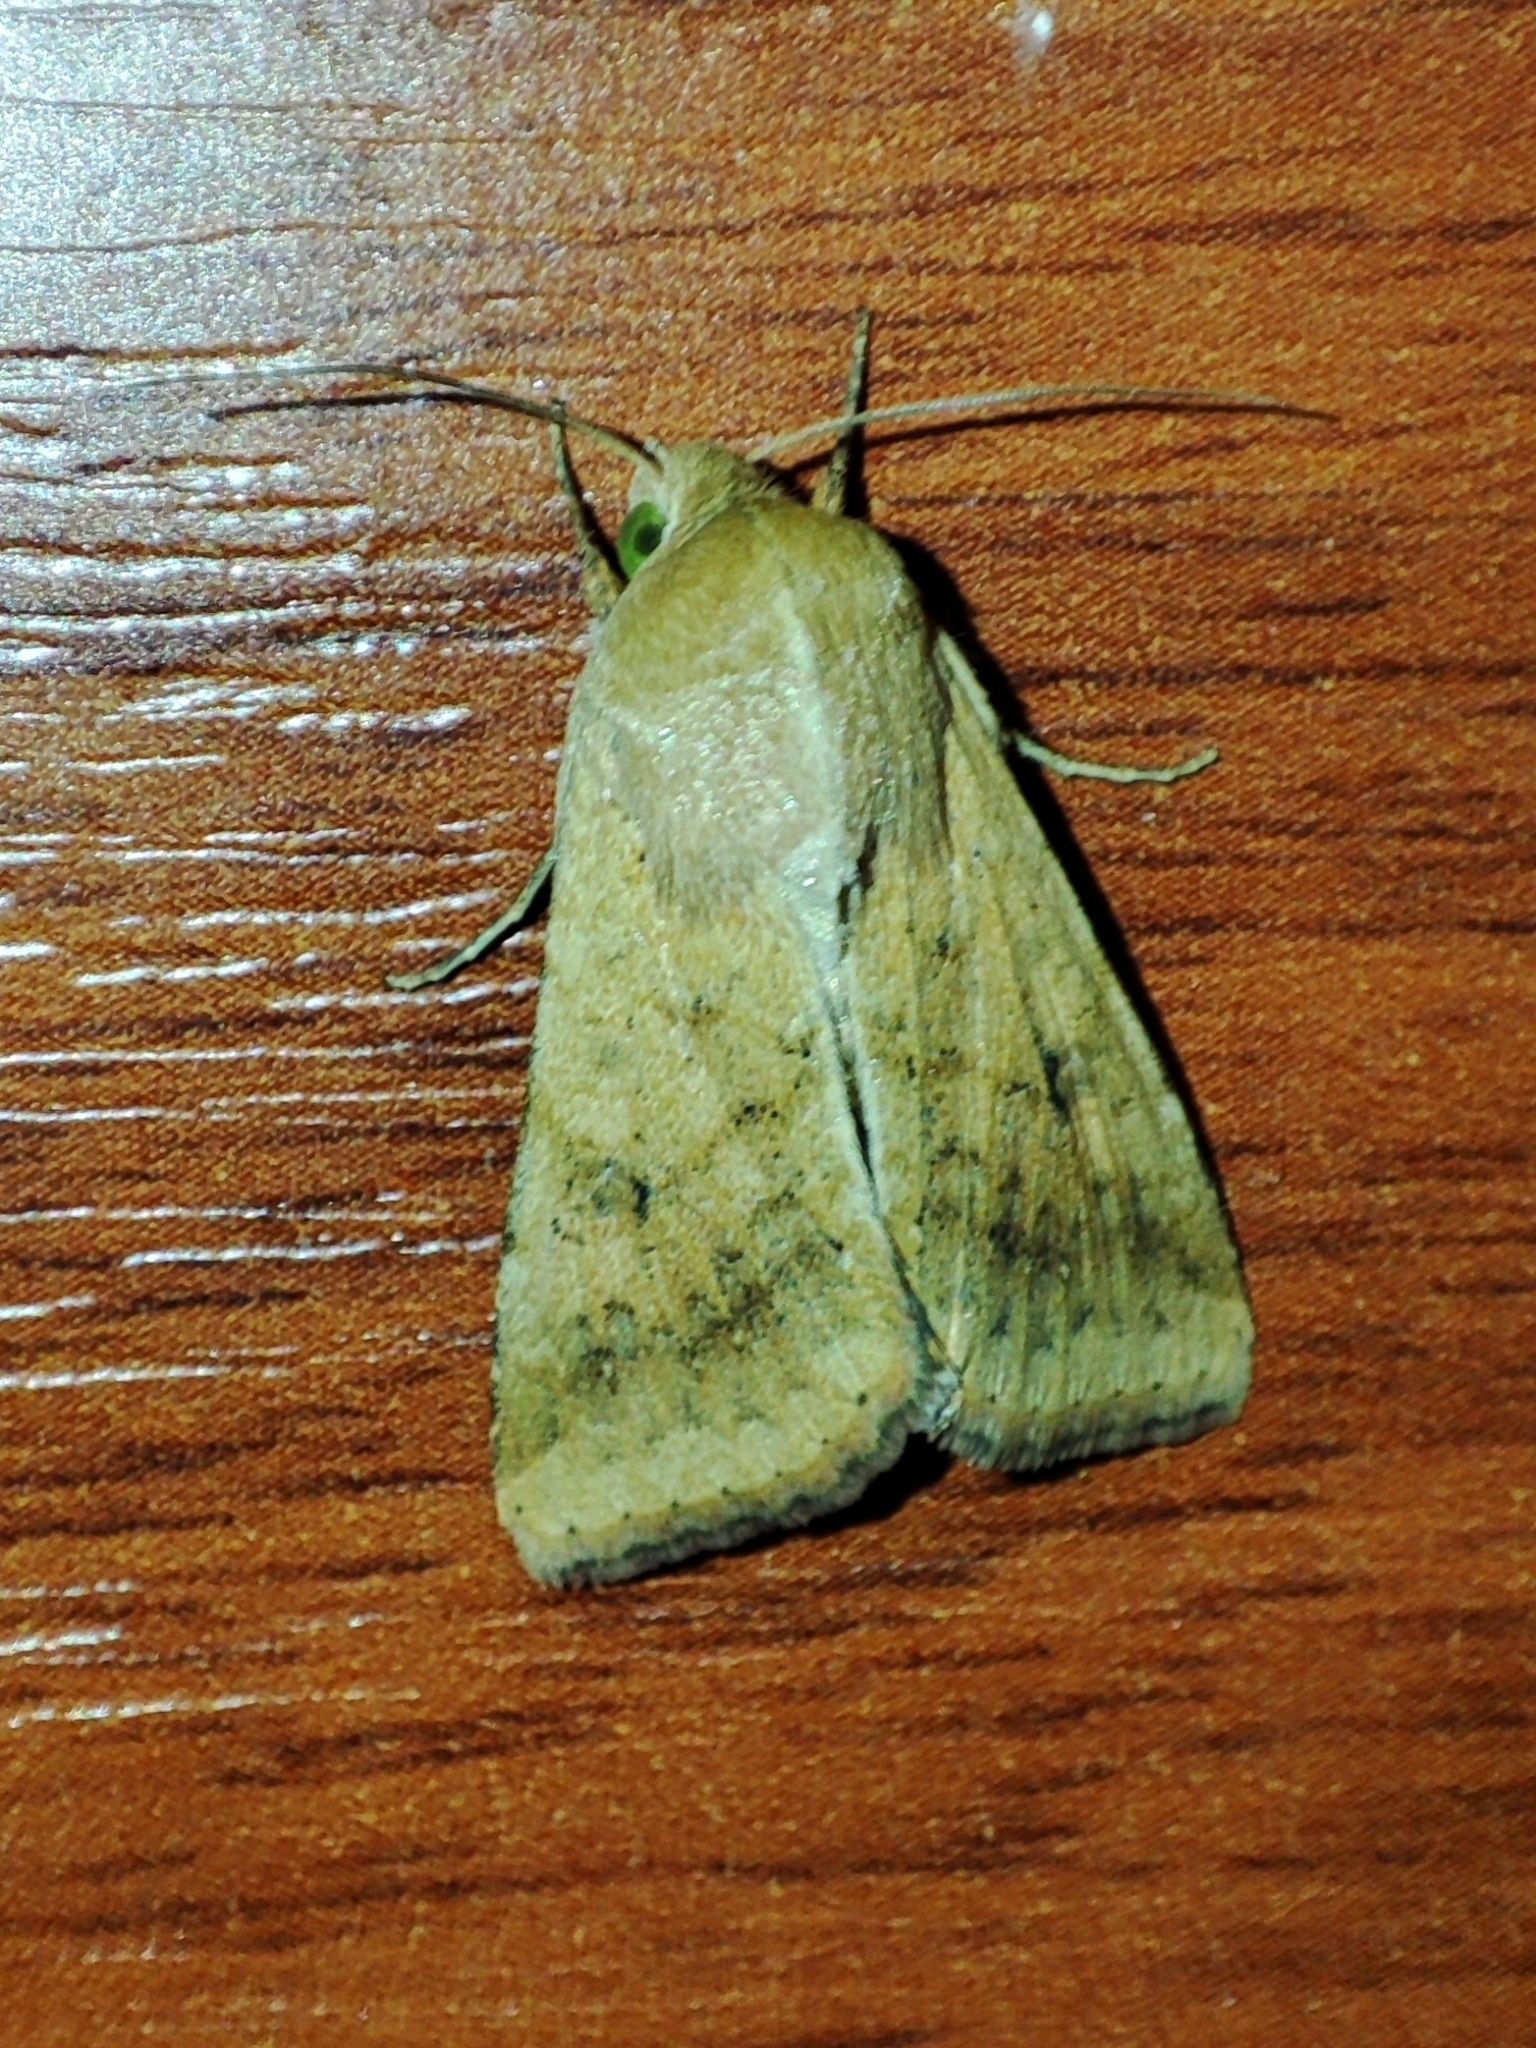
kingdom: Animalia
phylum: Arthropoda
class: Insecta
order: Lepidoptera
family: Noctuidae
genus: Helicoverpa
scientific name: Helicoverpa armigera
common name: Cotton bollworm
